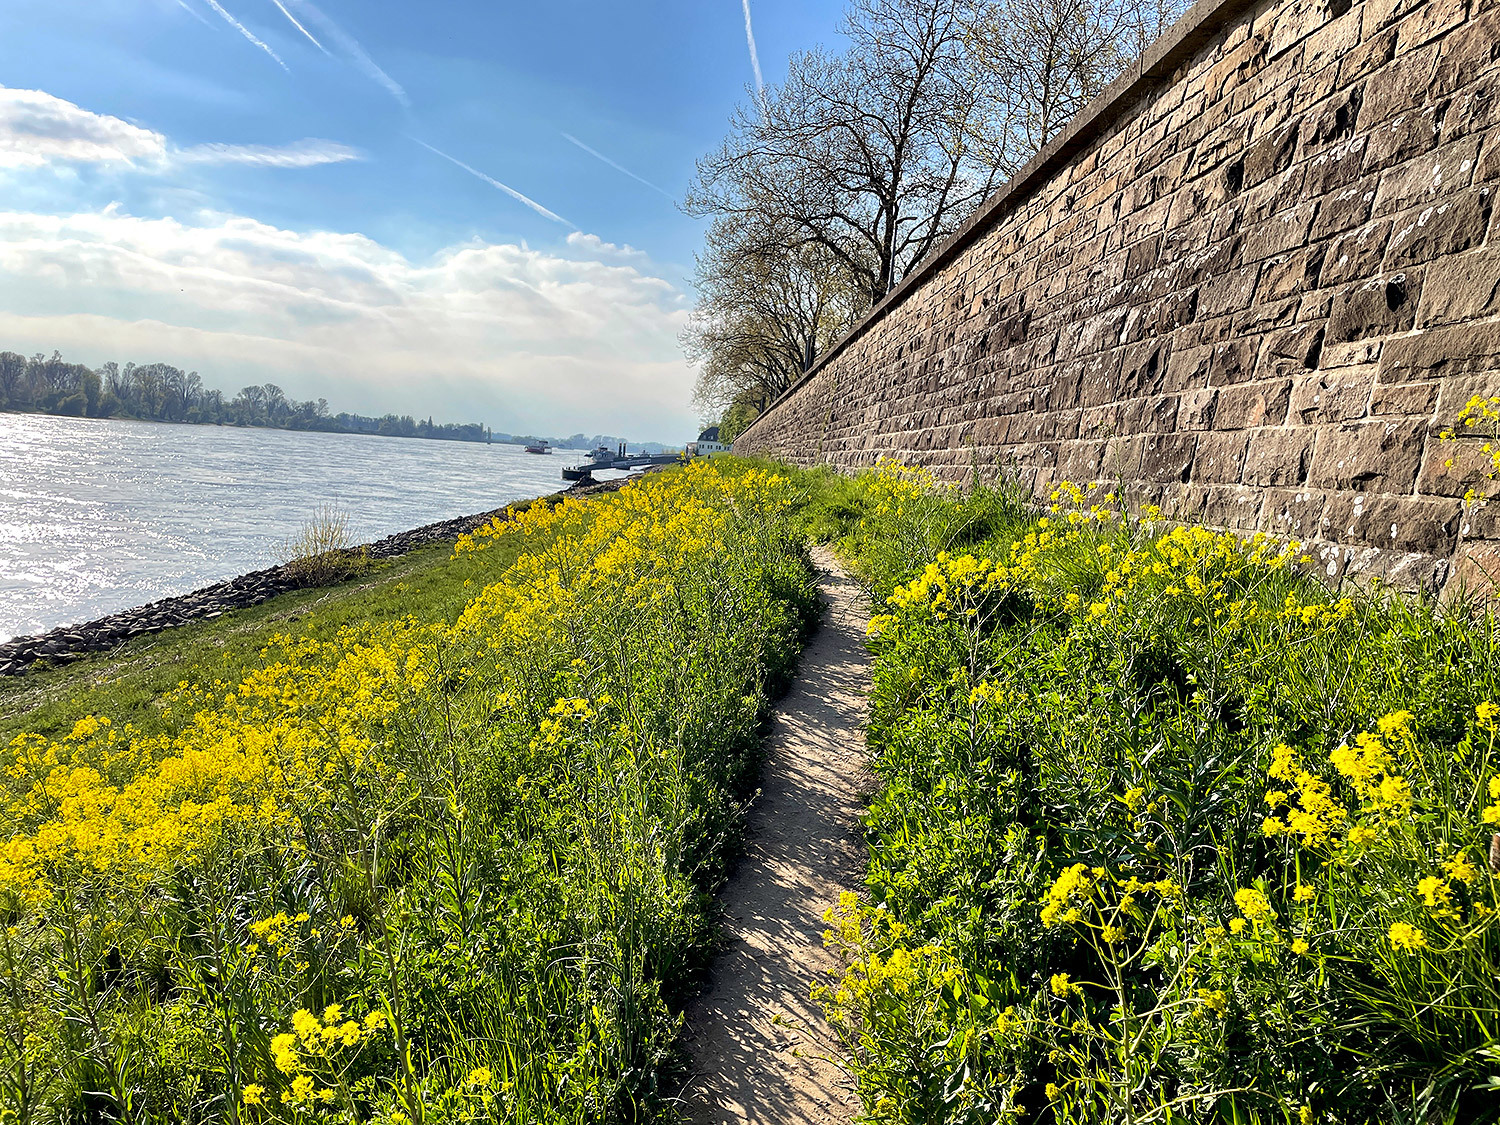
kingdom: Plantae
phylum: Tracheophyta
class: Magnoliopsida
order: Brassicales
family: Brassicaceae
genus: Isatis
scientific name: Isatis tinctoria
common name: Woad
